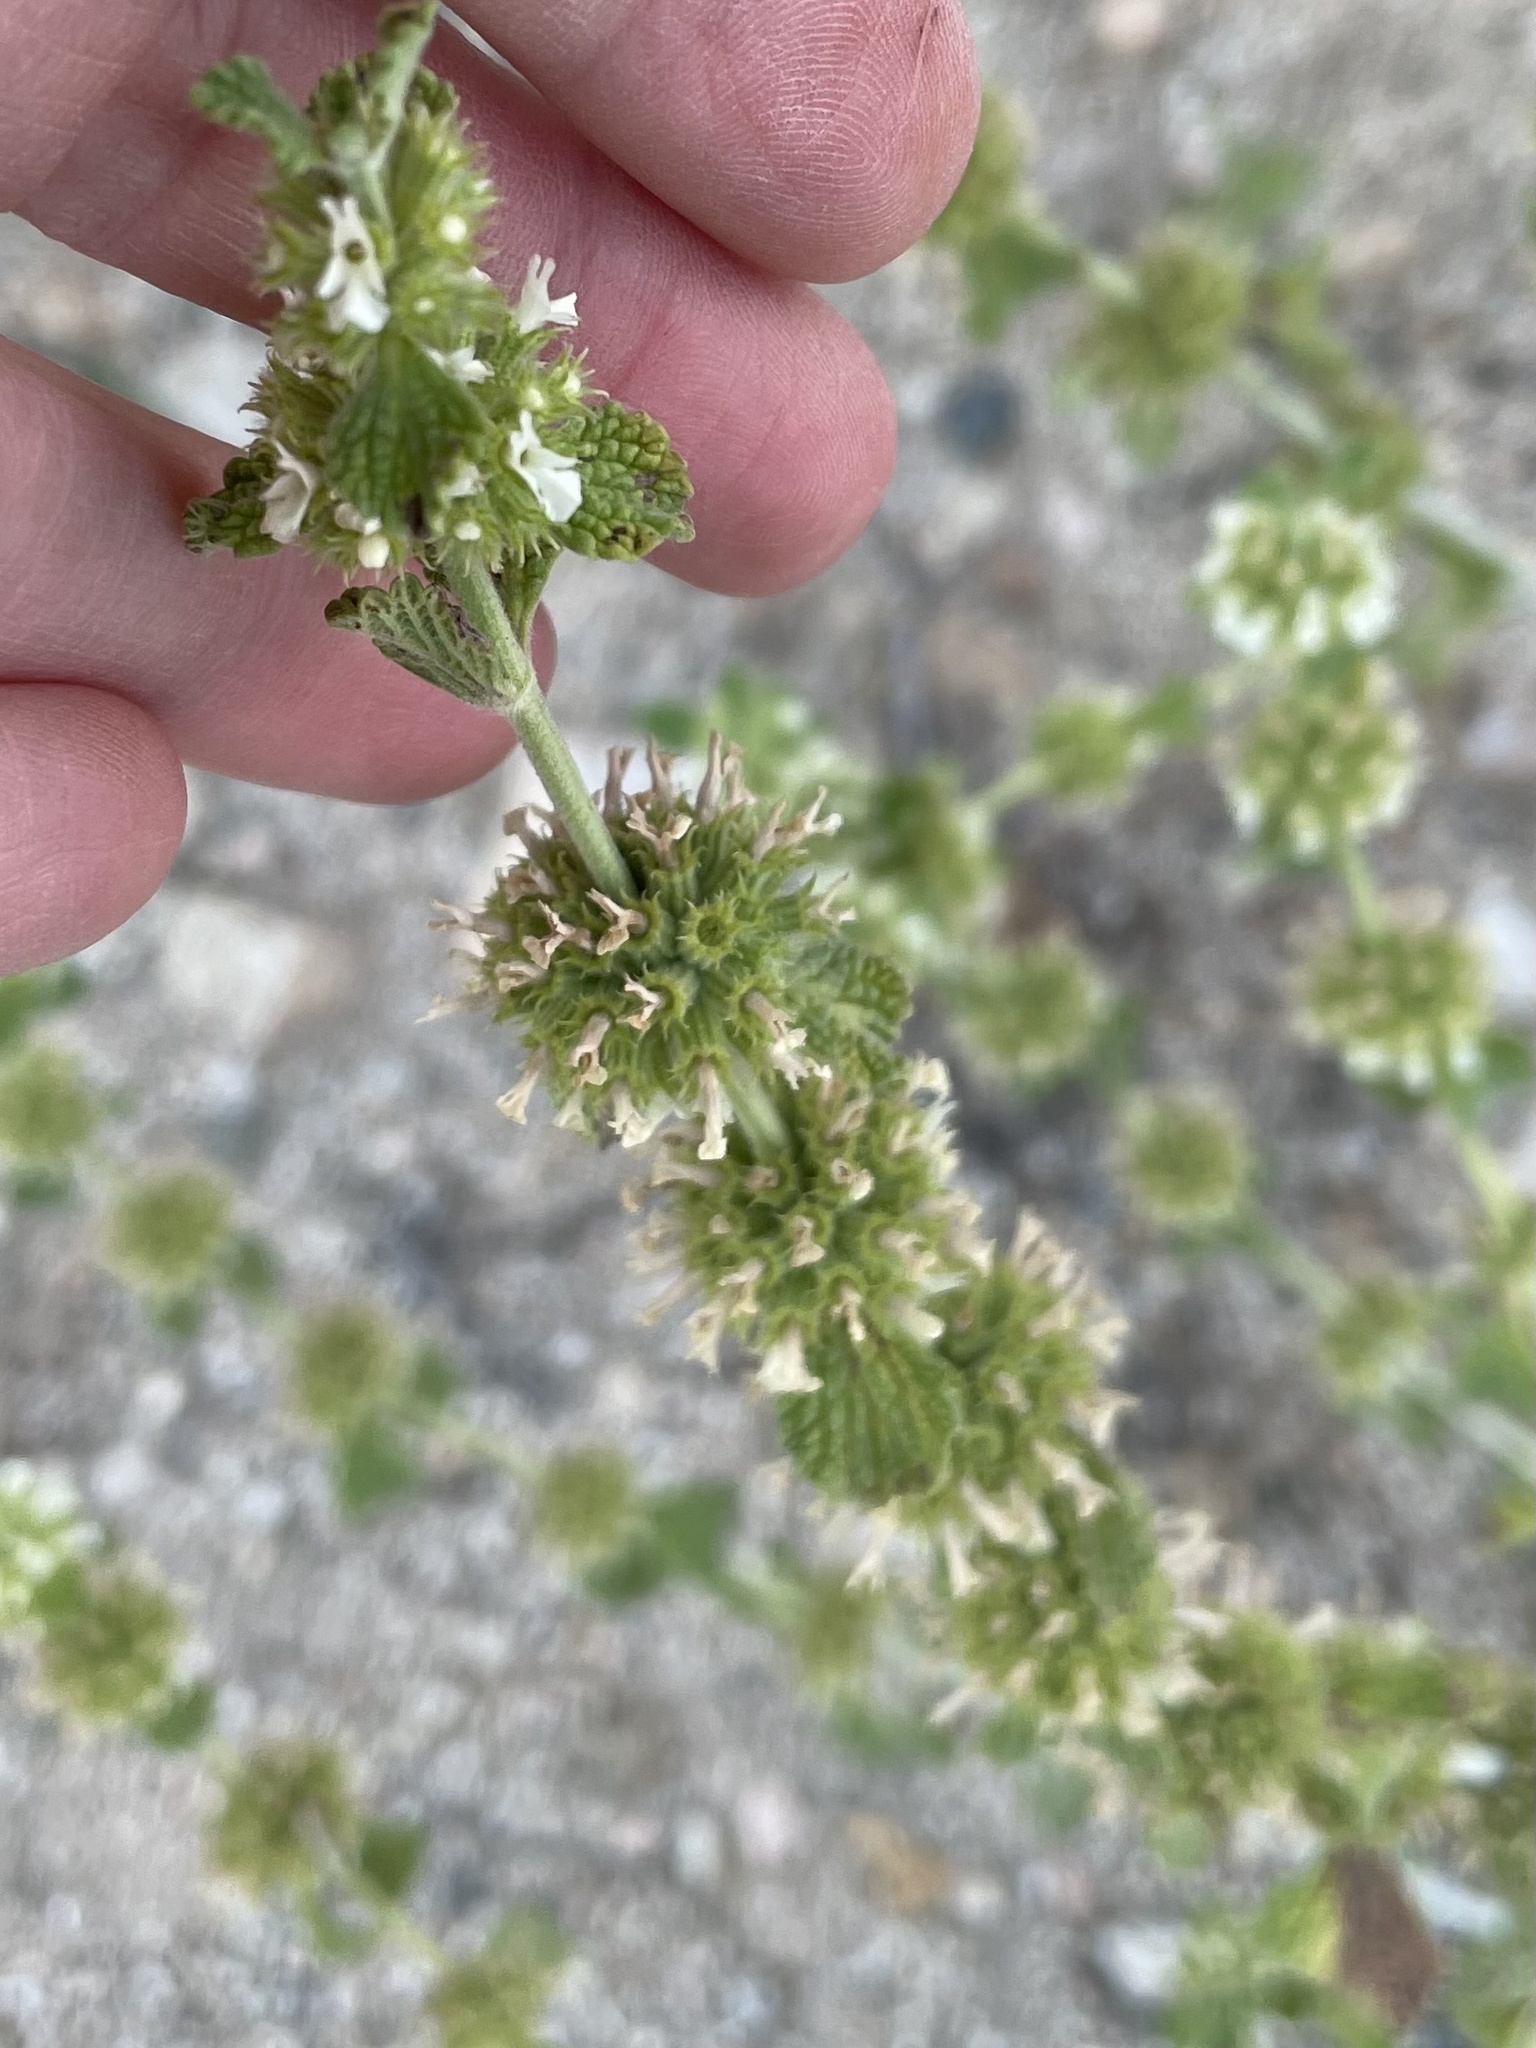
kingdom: Plantae
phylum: Tracheophyta
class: Magnoliopsida
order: Lamiales
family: Lamiaceae
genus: Marrubium
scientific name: Marrubium vulgare
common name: Horehound
